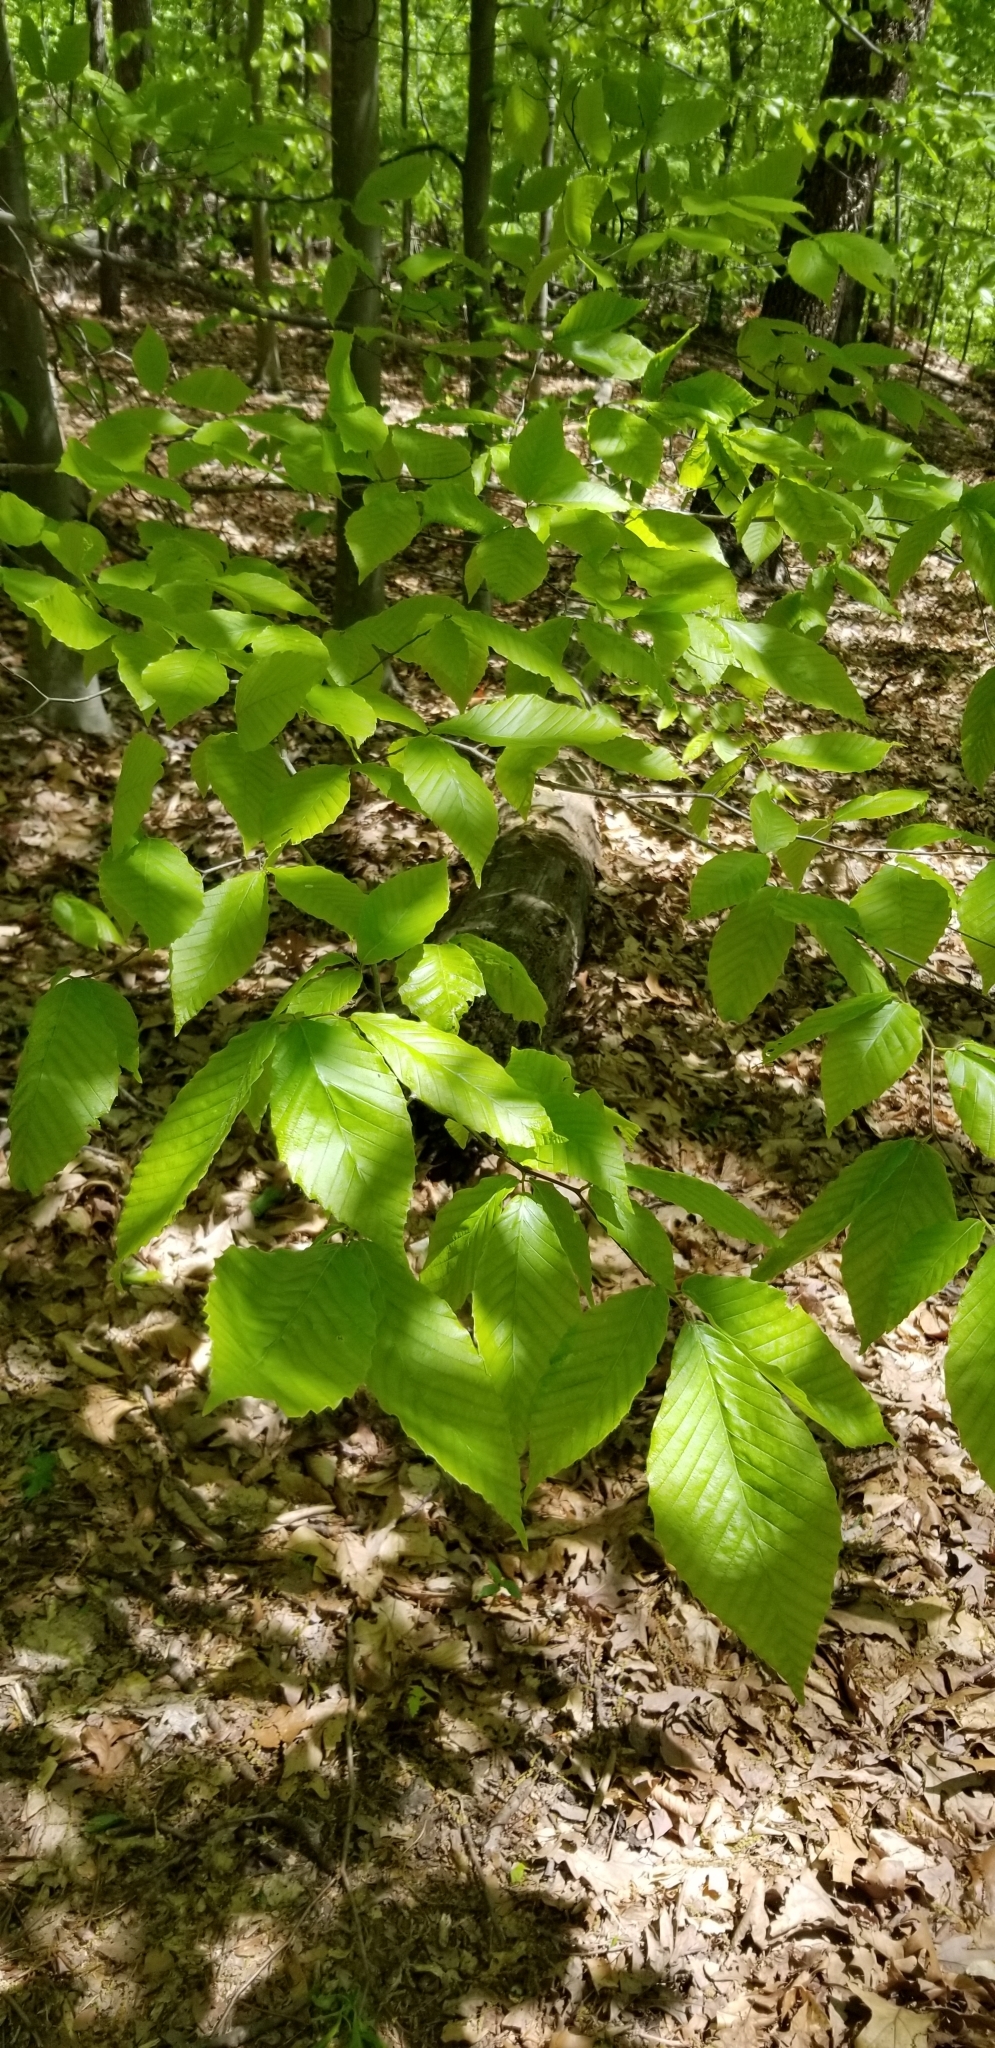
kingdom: Plantae
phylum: Tracheophyta
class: Magnoliopsida
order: Fagales
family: Fagaceae
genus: Fagus
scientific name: Fagus grandifolia
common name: American beech
